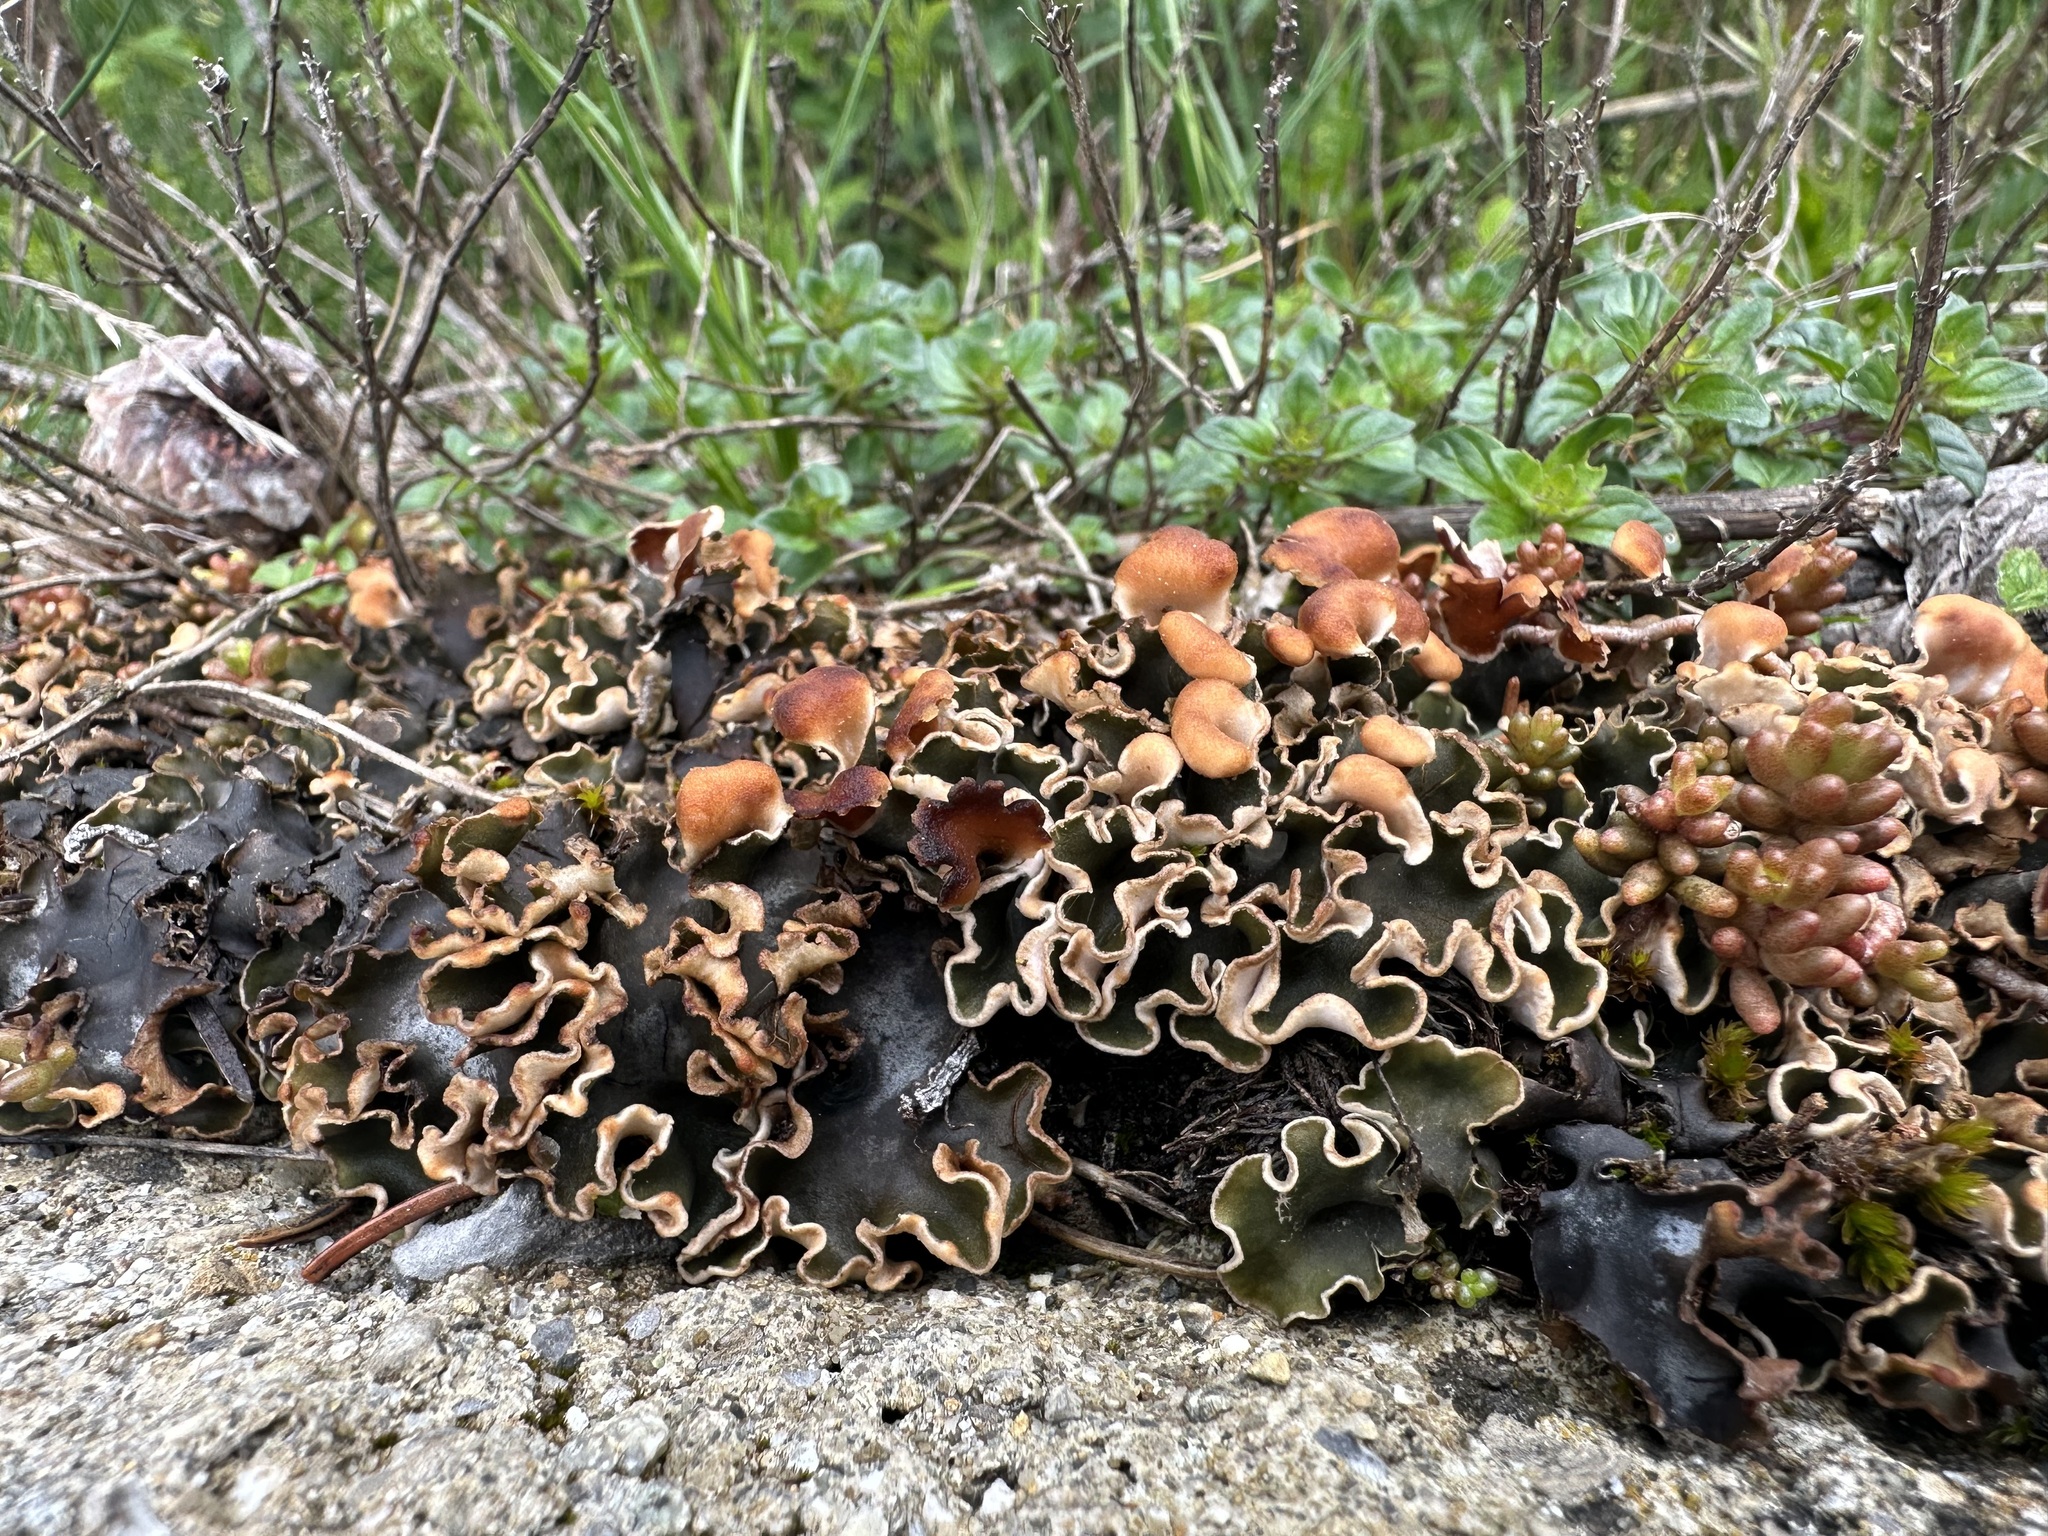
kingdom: Fungi
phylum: Ascomycota
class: Lecanoromycetes
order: Peltigerales
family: Peltigeraceae
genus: Peltigera
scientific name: Peltigera scabrosa
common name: Greater toad pelt lichen
